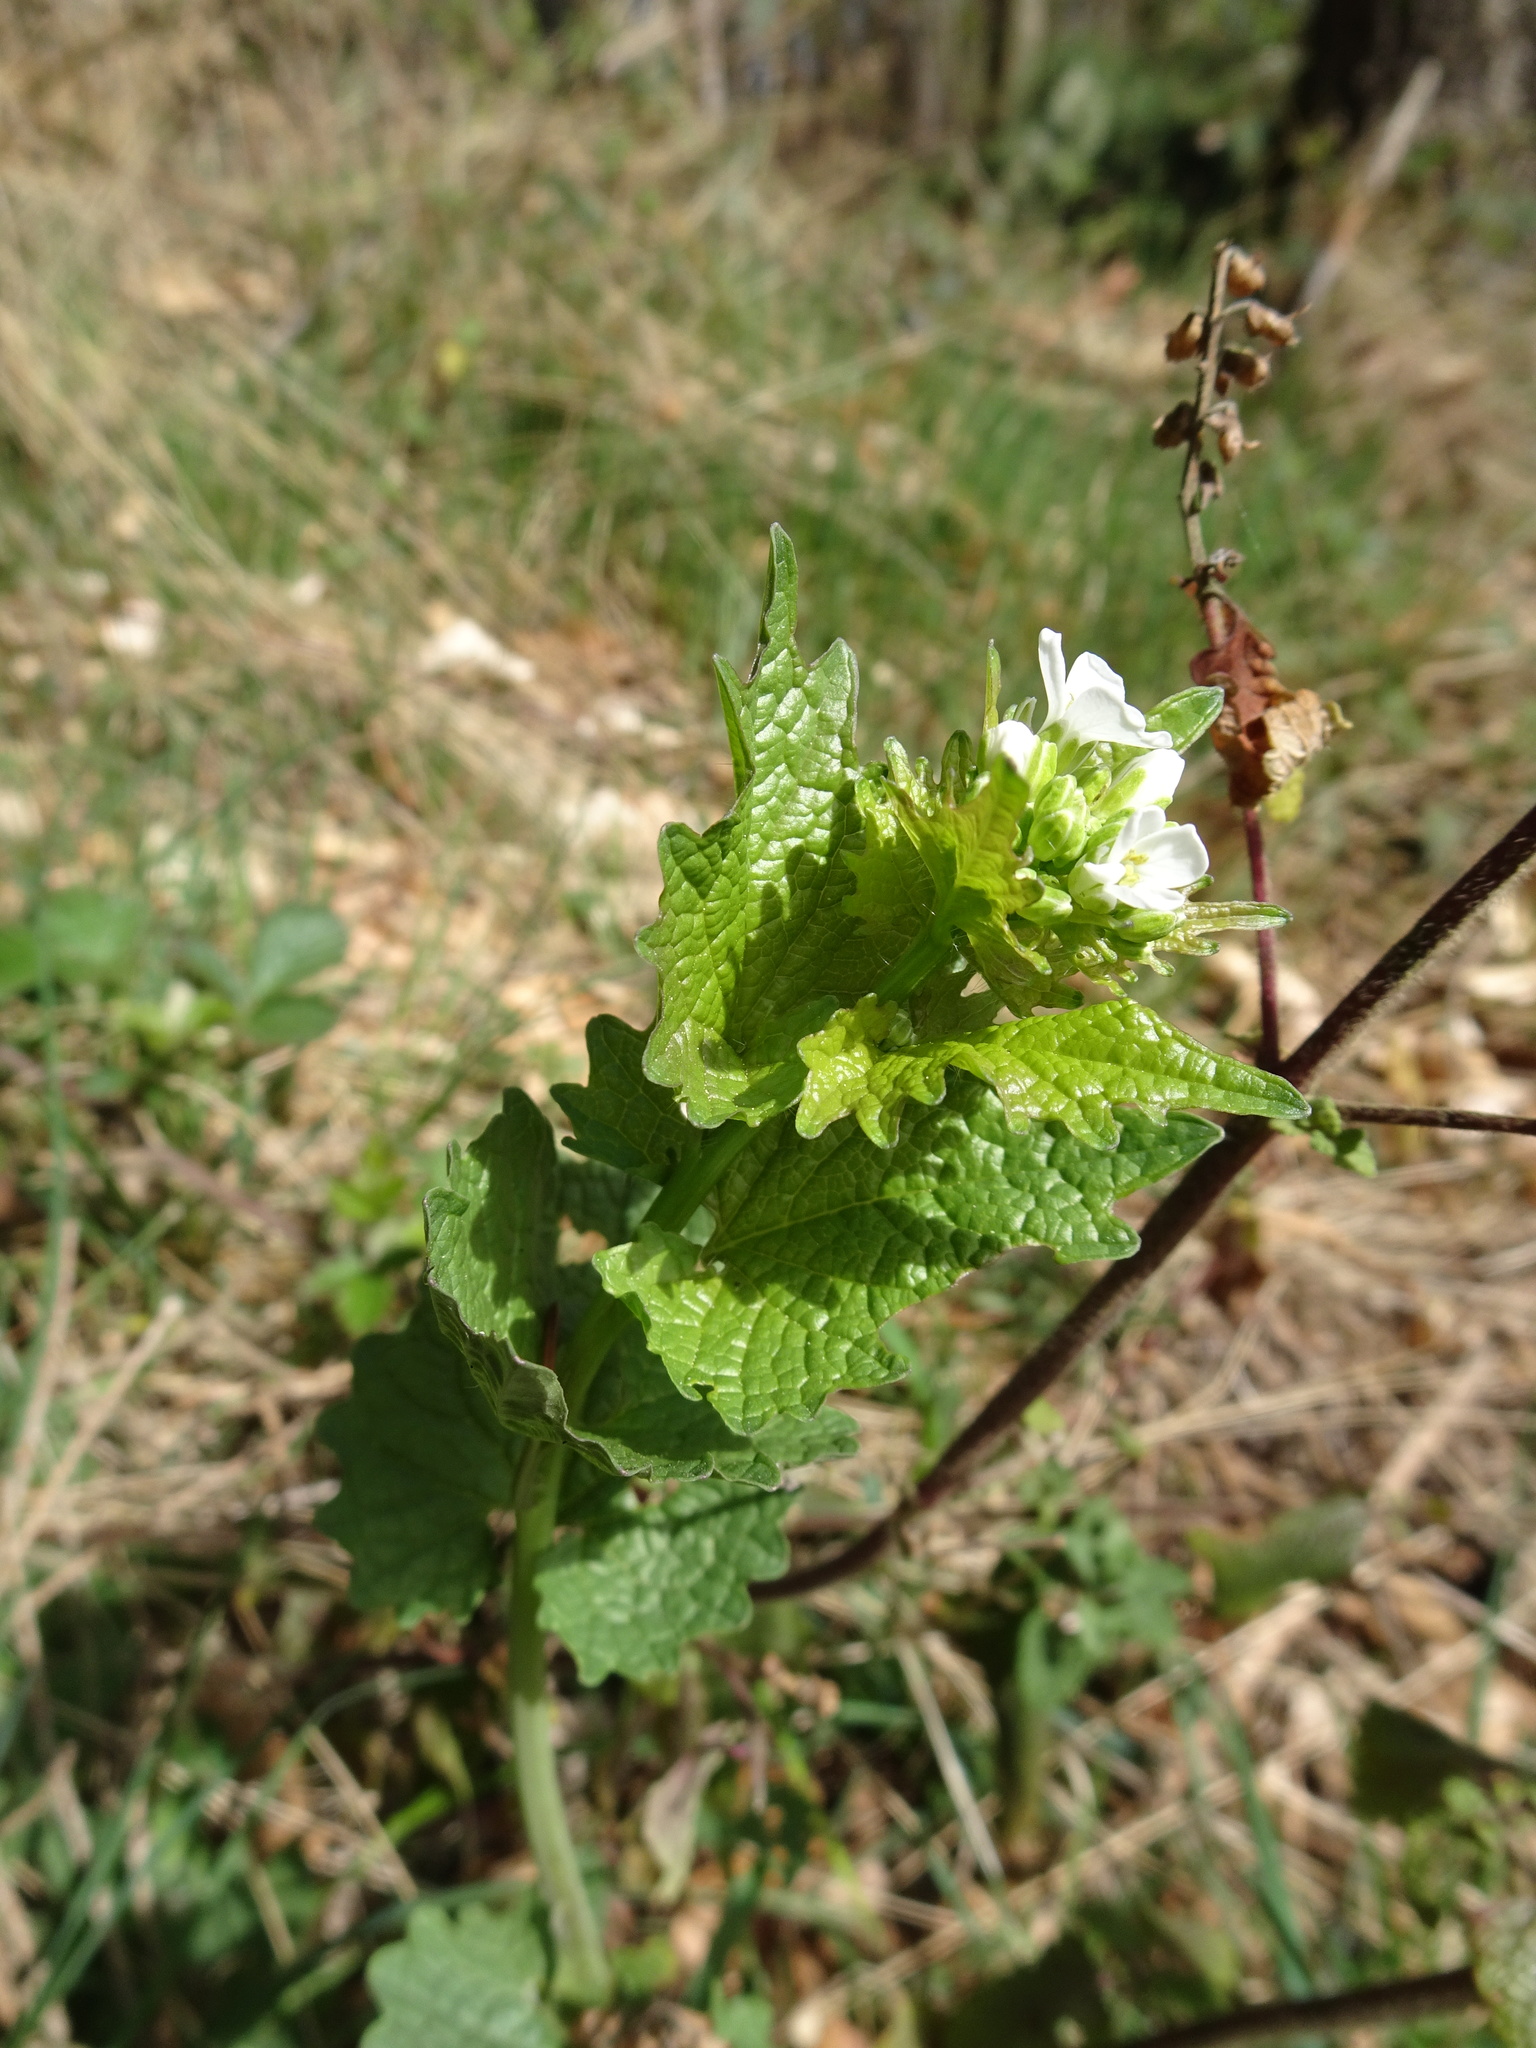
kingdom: Plantae
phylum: Tracheophyta
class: Magnoliopsida
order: Brassicales
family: Brassicaceae
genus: Alliaria
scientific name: Alliaria petiolata
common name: Garlic mustard
